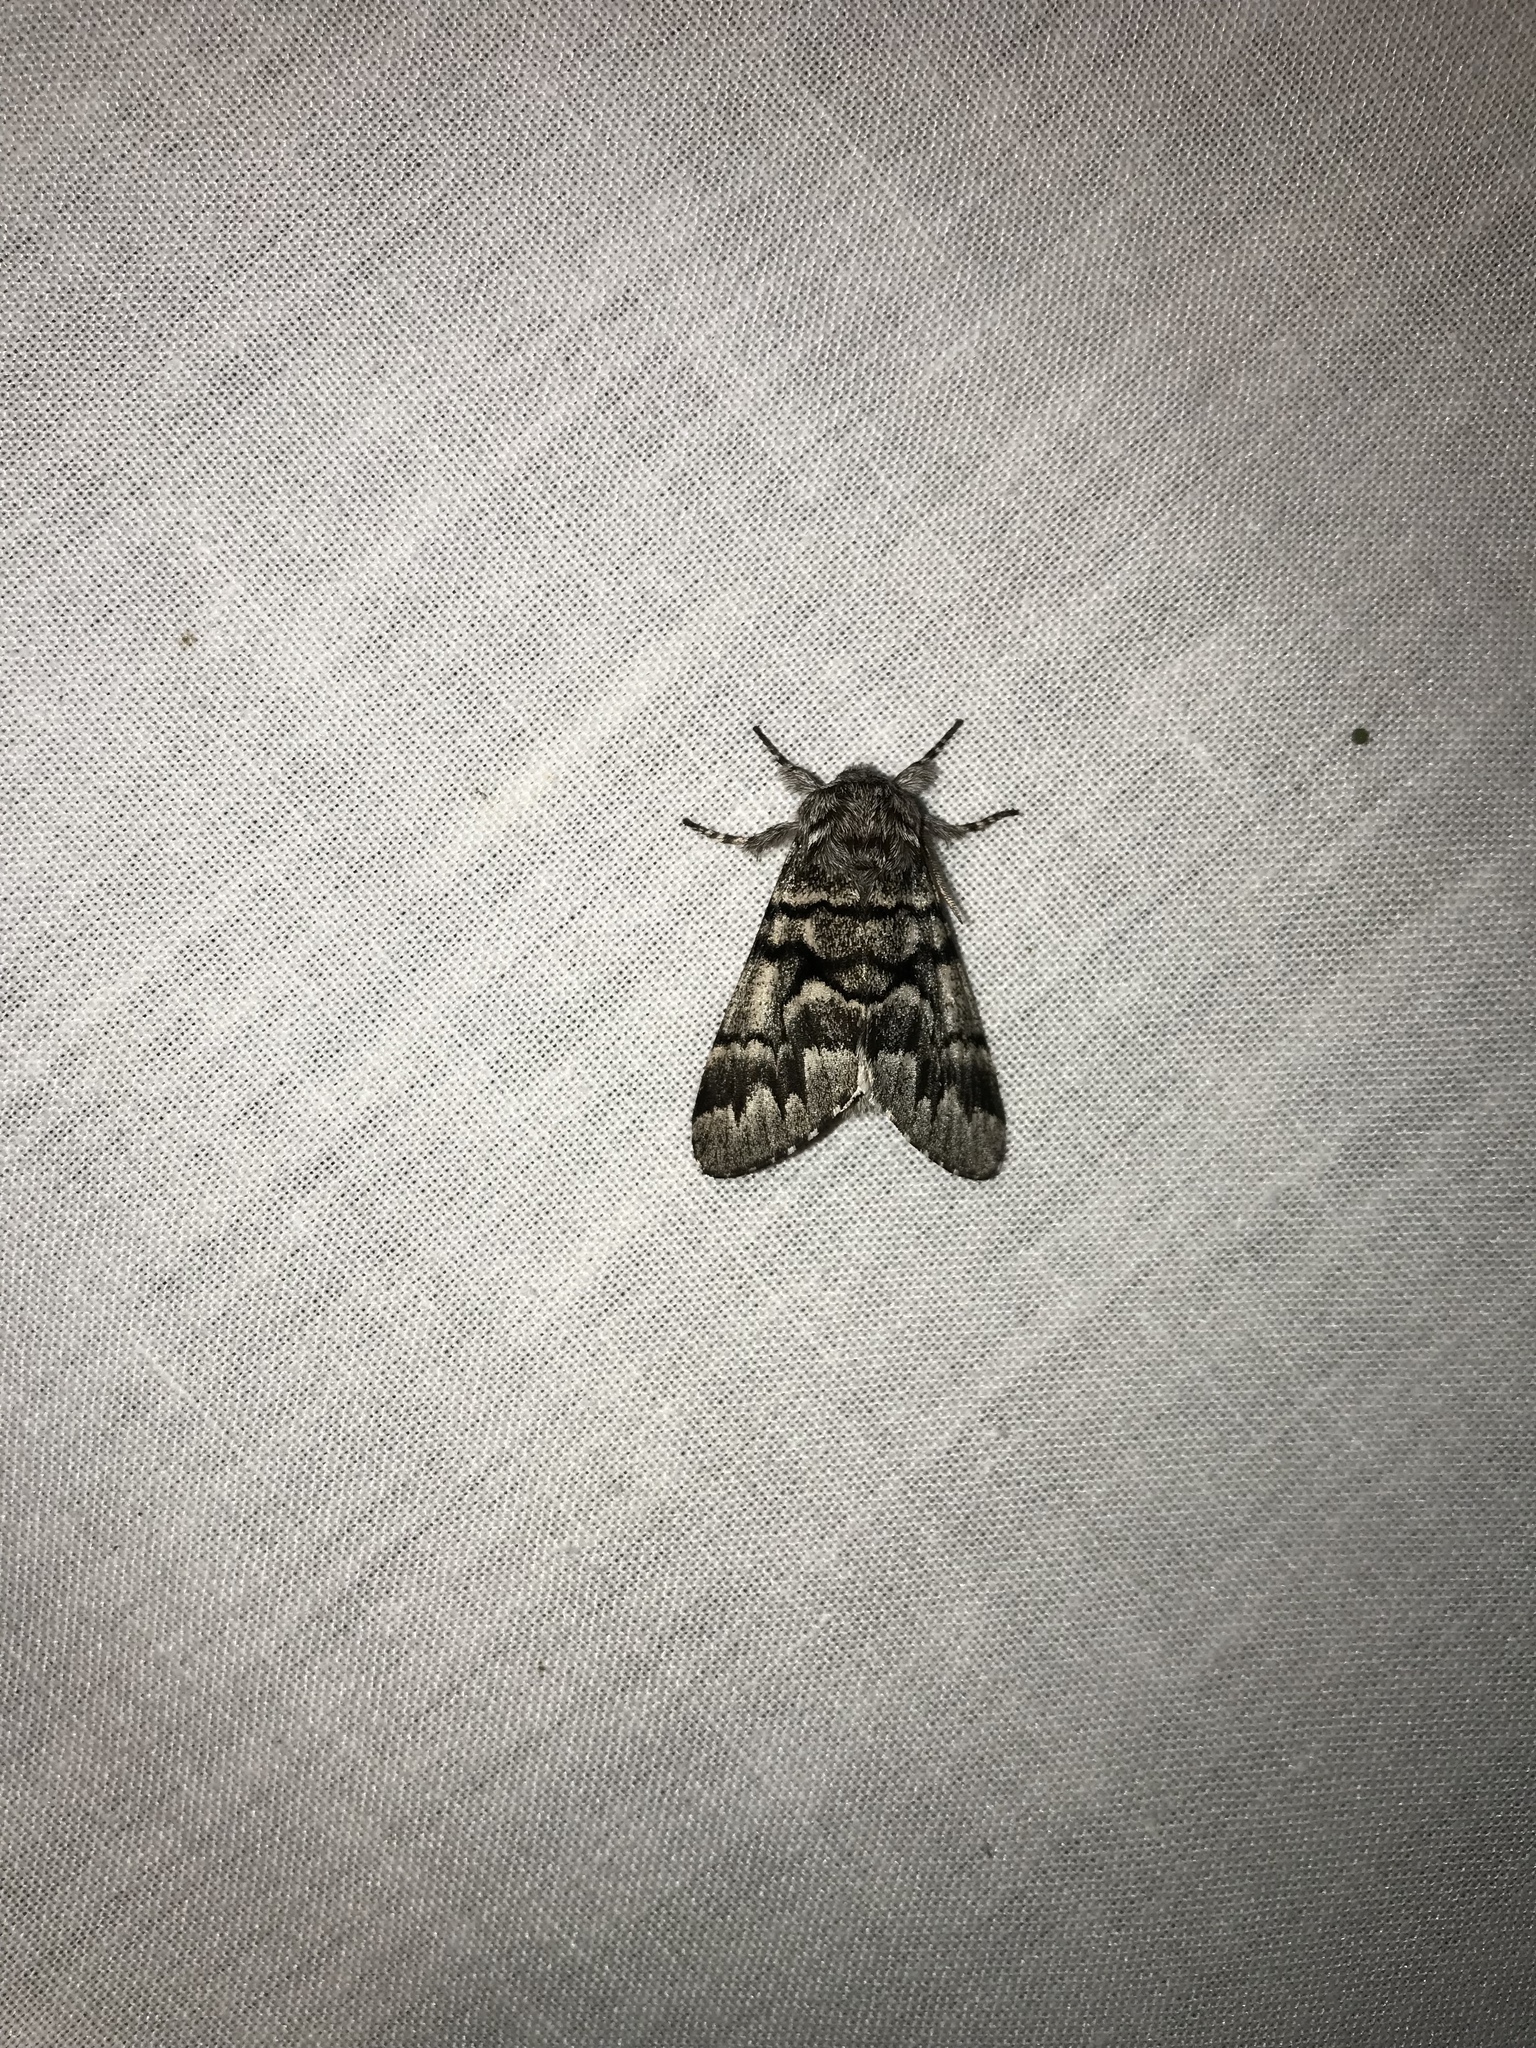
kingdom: Animalia
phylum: Arthropoda
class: Insecta
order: Lepidoptera
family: Noctuidae
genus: Panthea
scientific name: Panthea furcilla
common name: Eastern panthea moth
